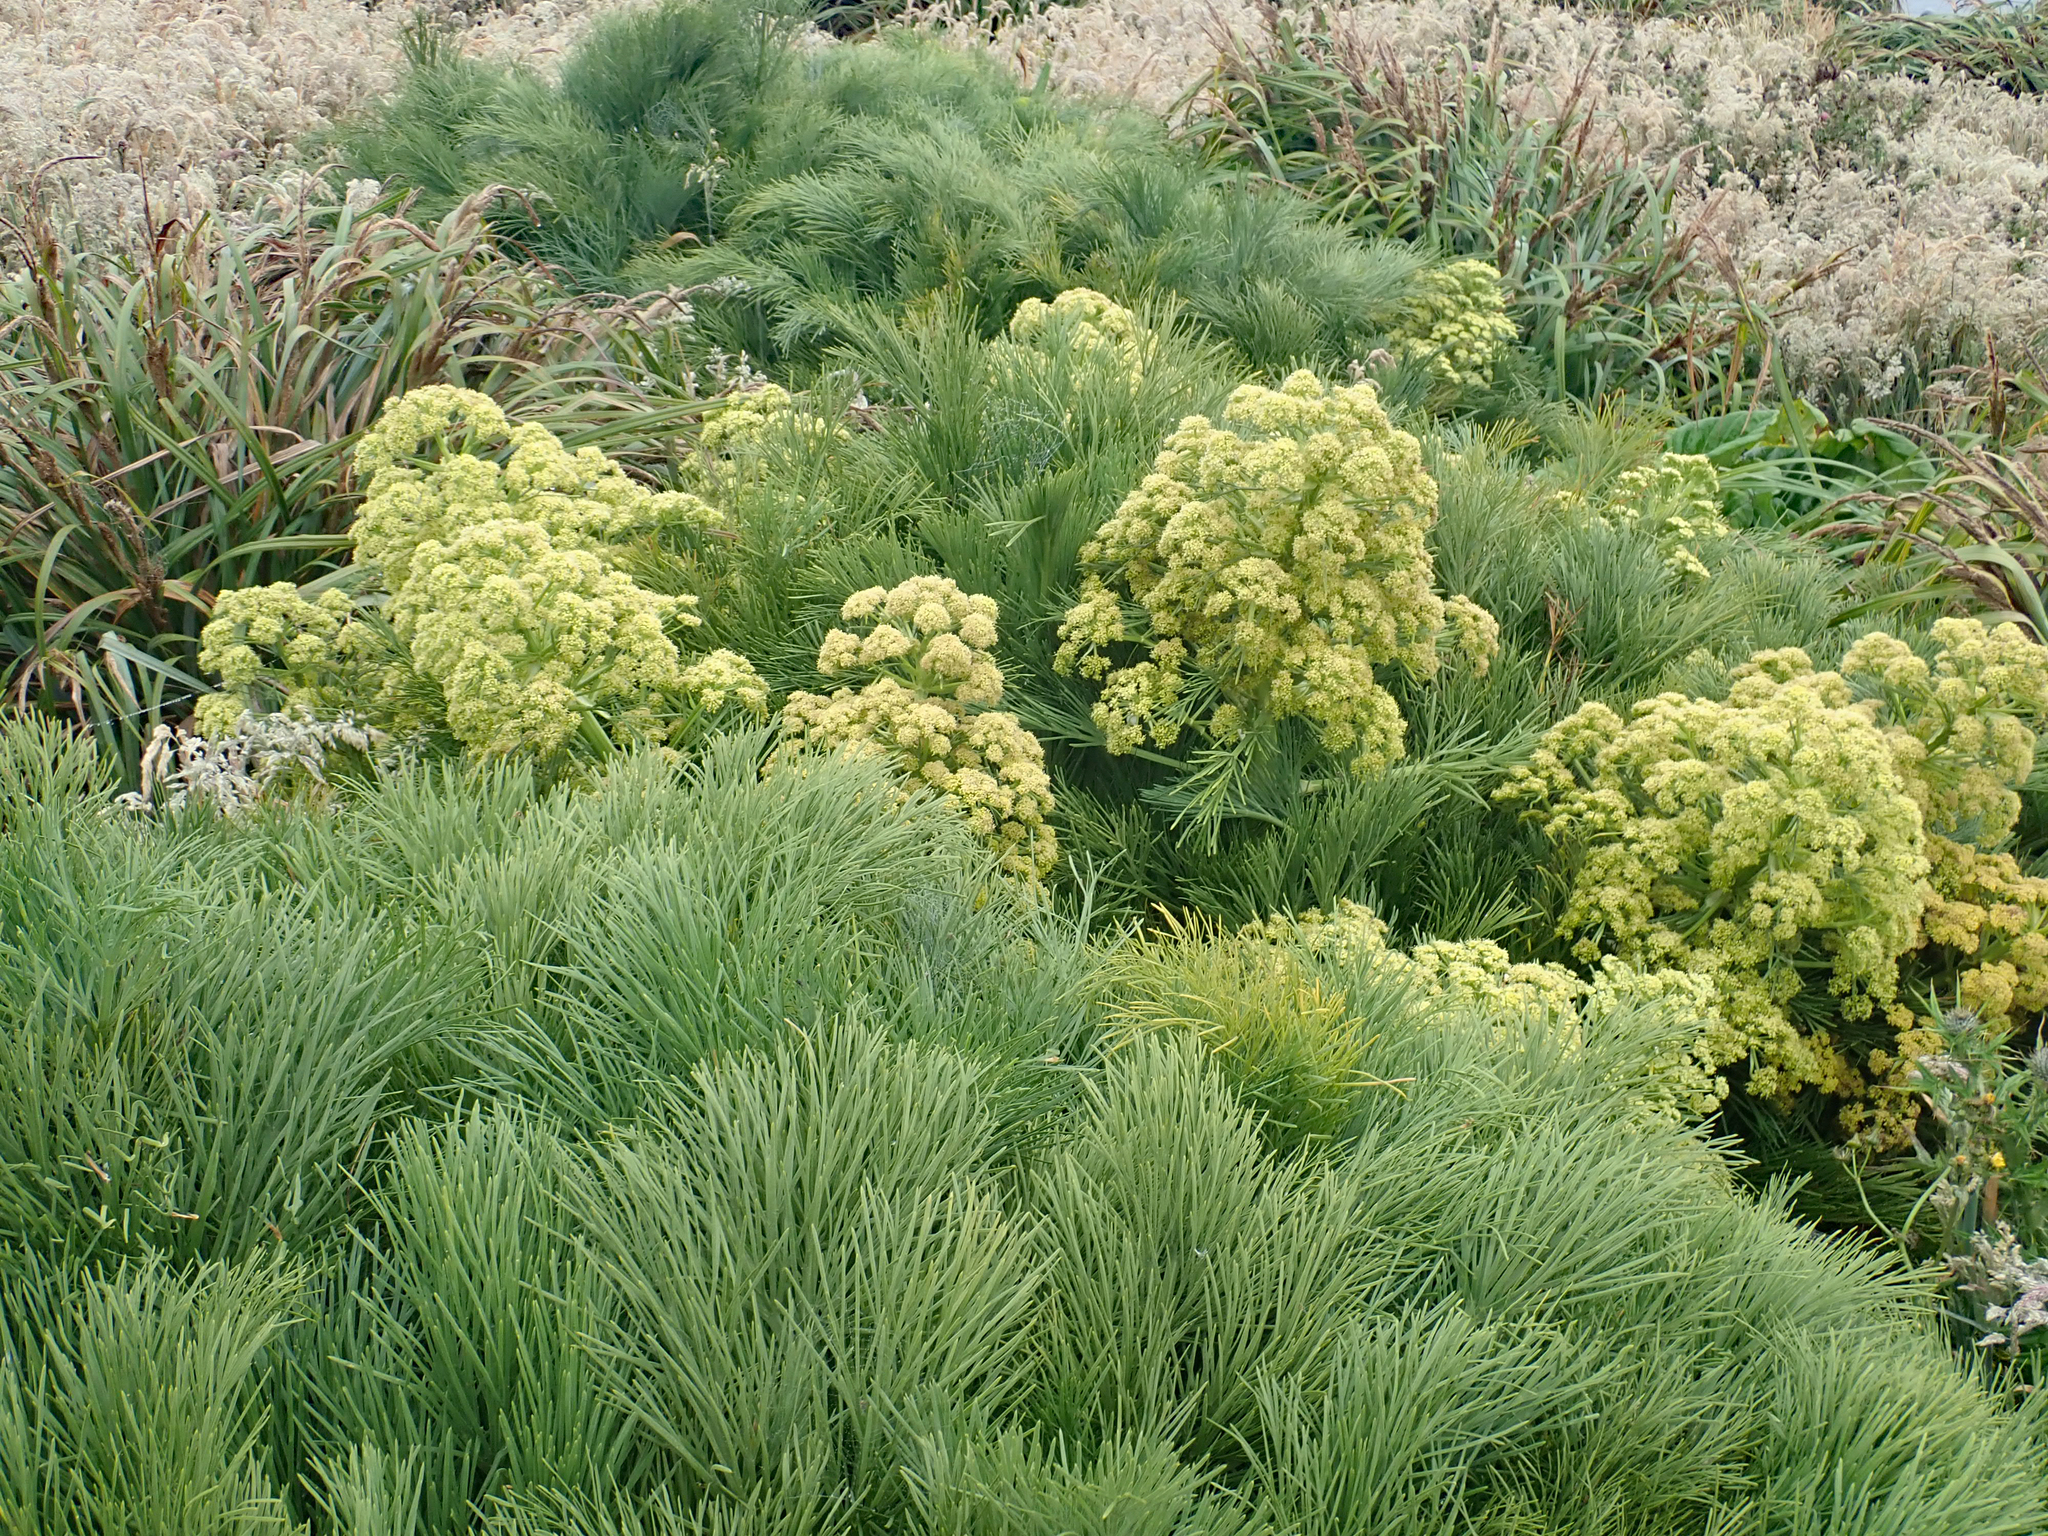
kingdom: Plantae
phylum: Tracheophyta
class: Magnoliopsida
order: Apiales
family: Apiaceae
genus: Aciphylla
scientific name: Aciphylla dieffenbachii
